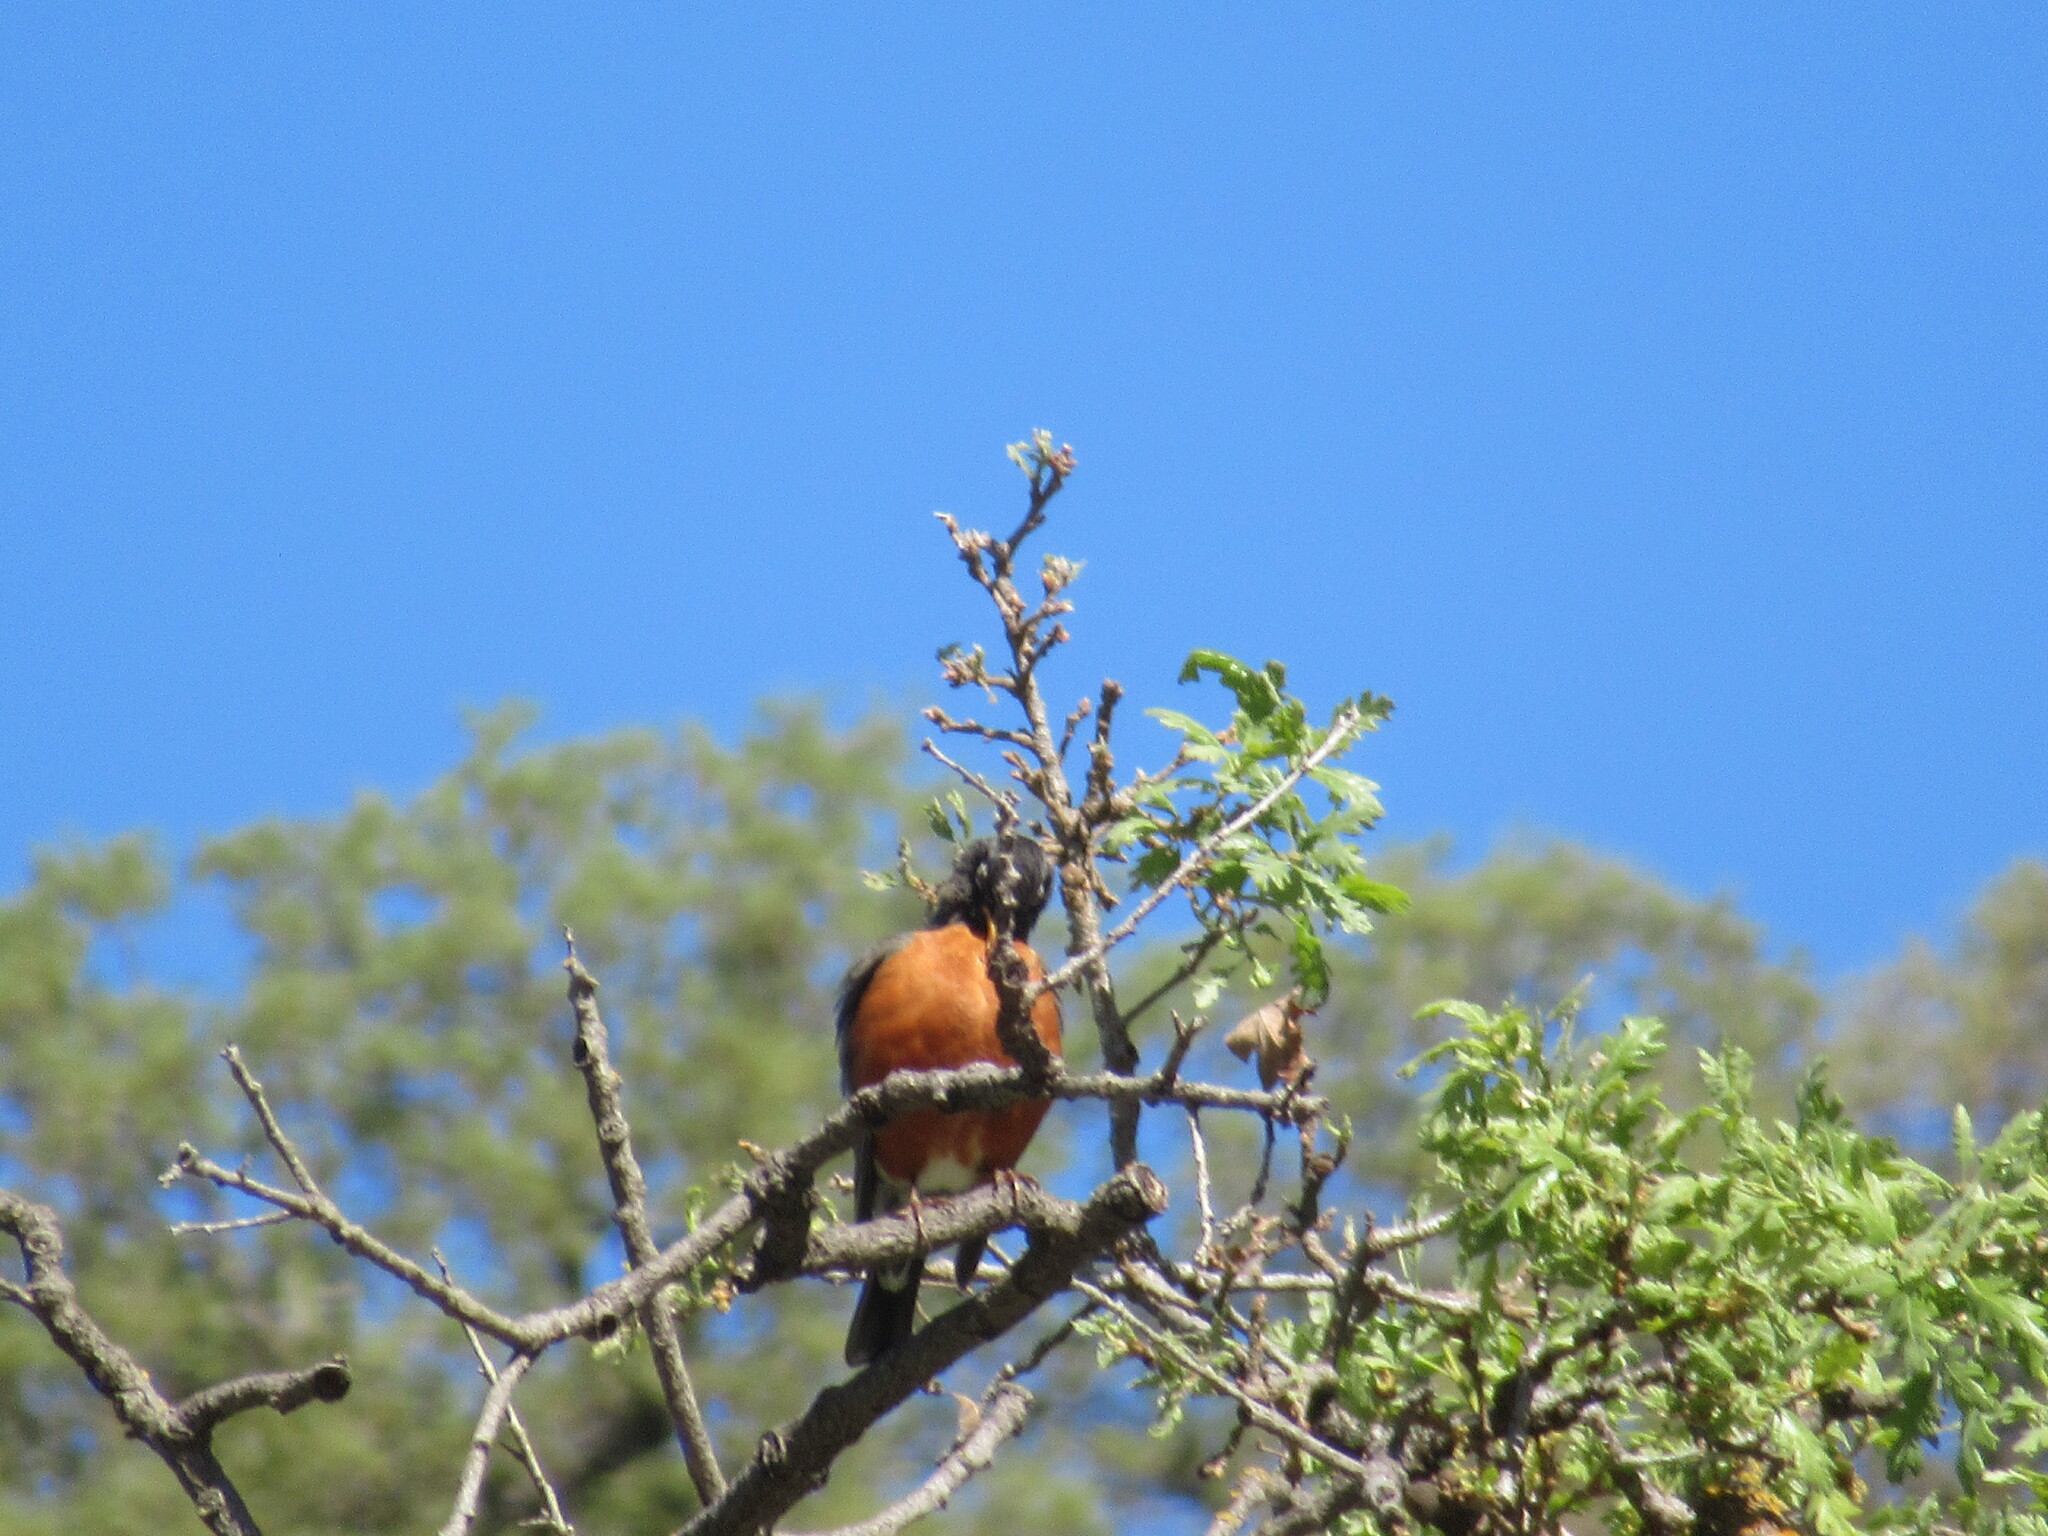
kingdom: Animalia
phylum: Chordata
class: Aves
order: Passeriformes
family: Turdidae
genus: Turdus
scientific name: Turdus migratorius
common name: American robin
